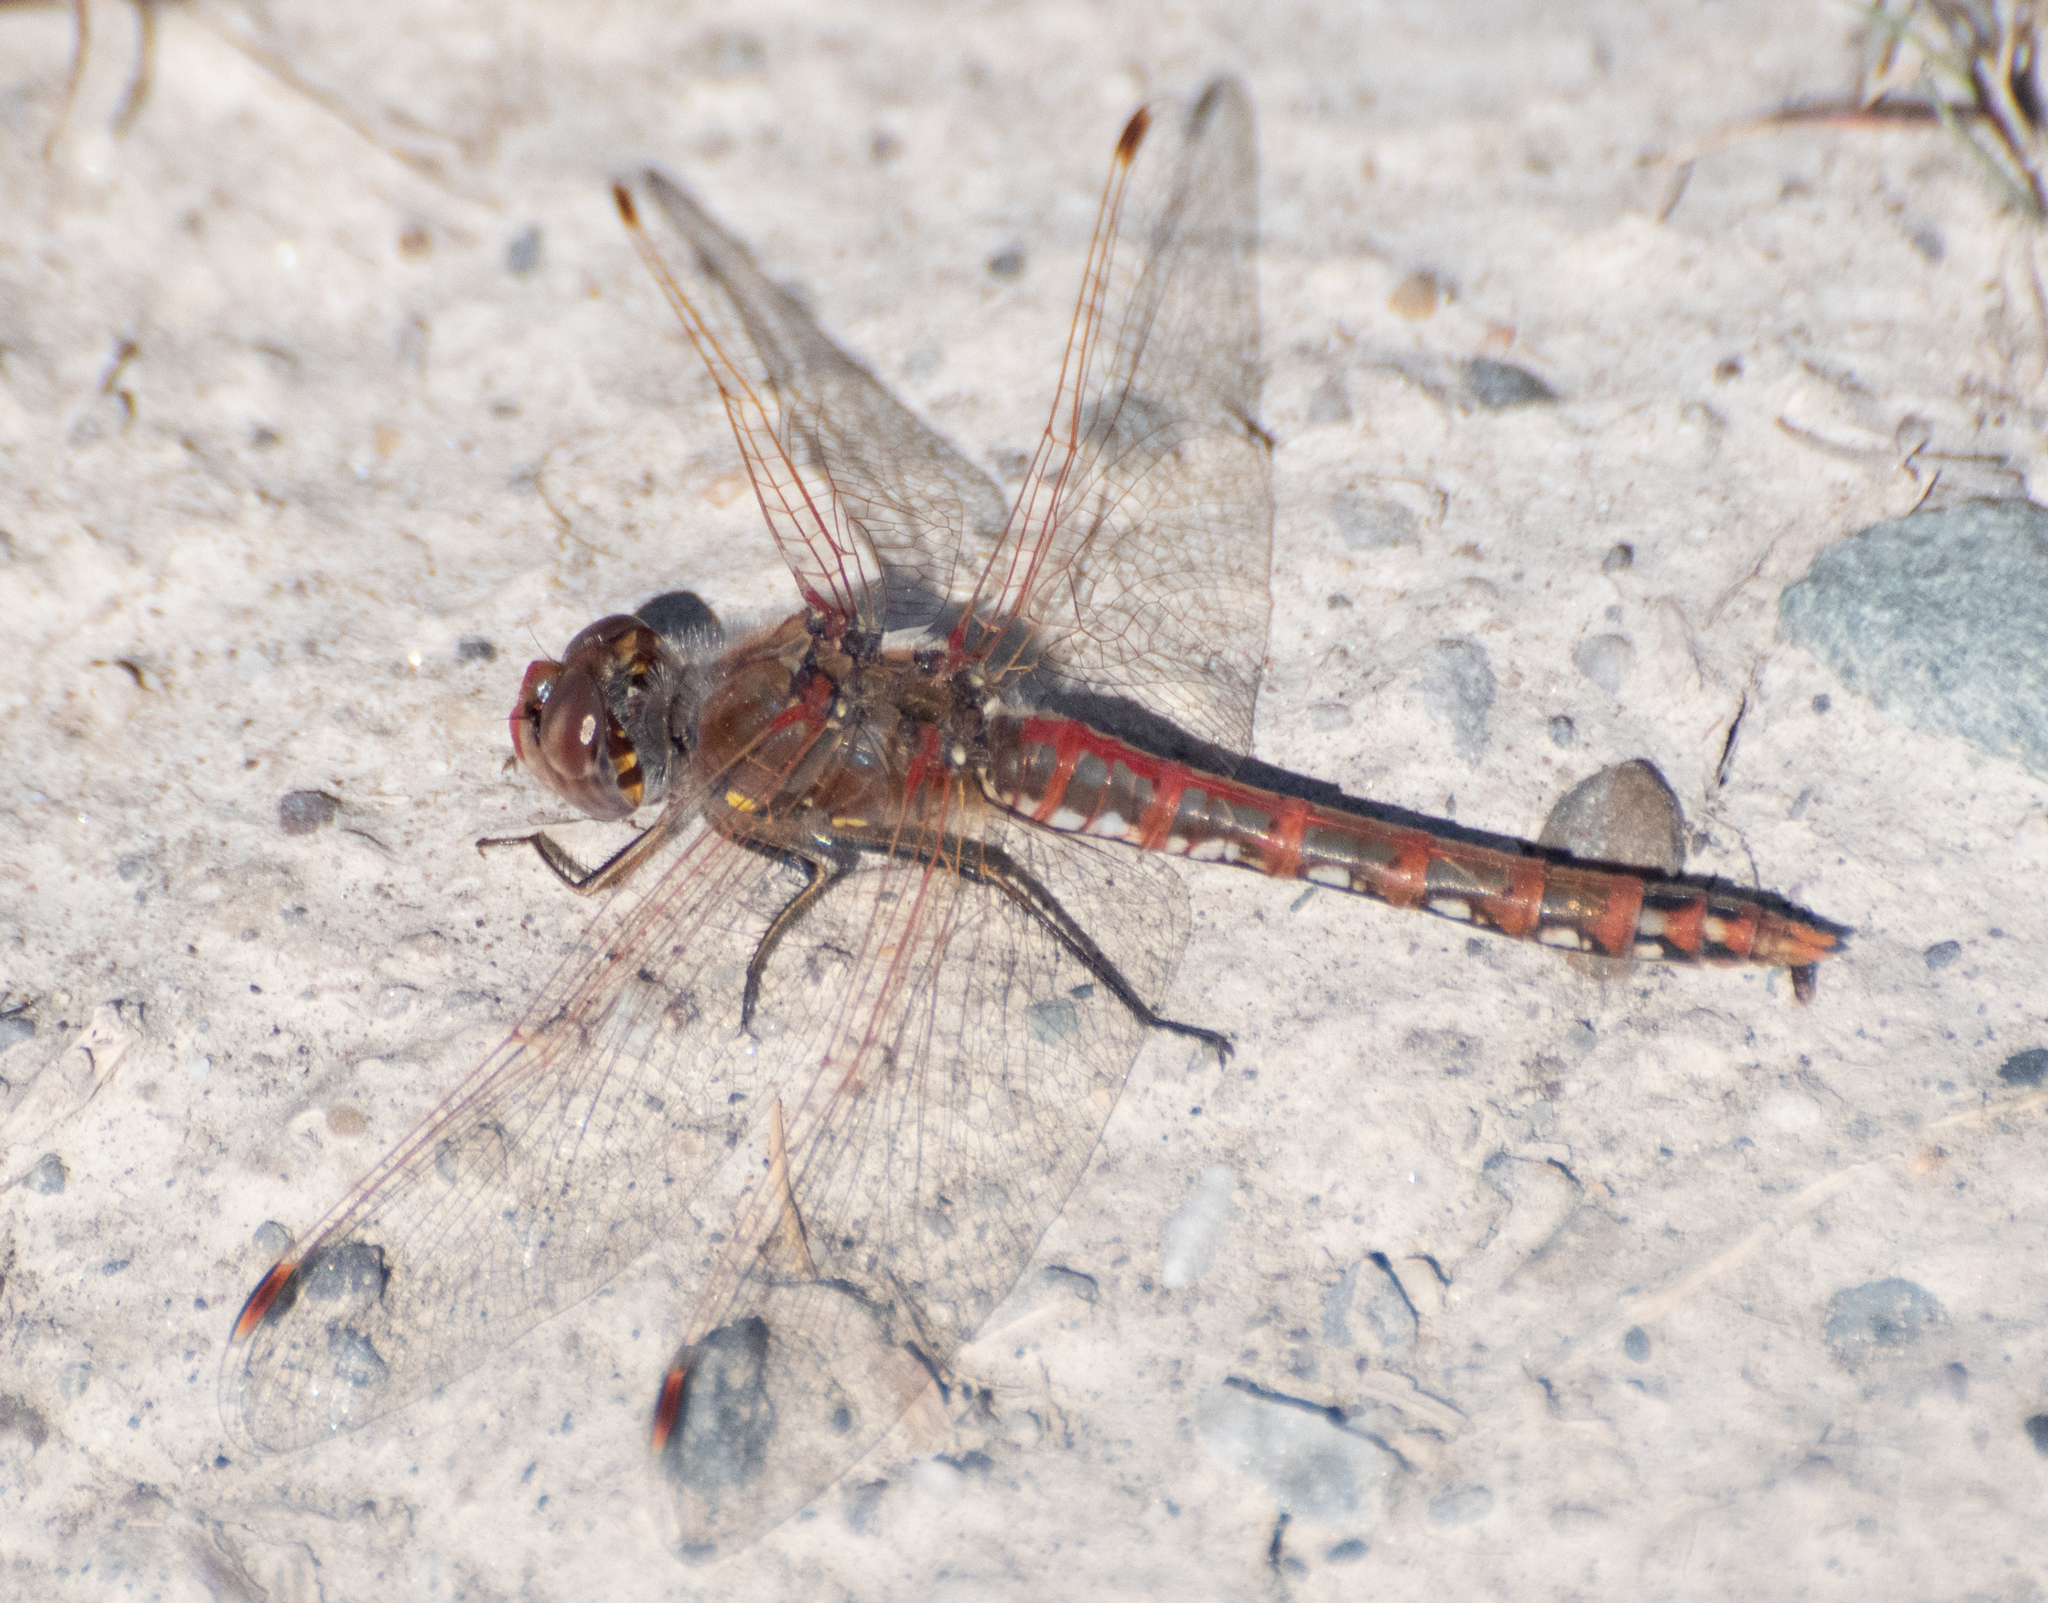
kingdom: Animalia
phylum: Arthropoda
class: Insecta
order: Odonata
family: Libellulidae
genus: Sympetrum
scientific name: Sympetrum corruptum
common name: Variegated meadowhawk
